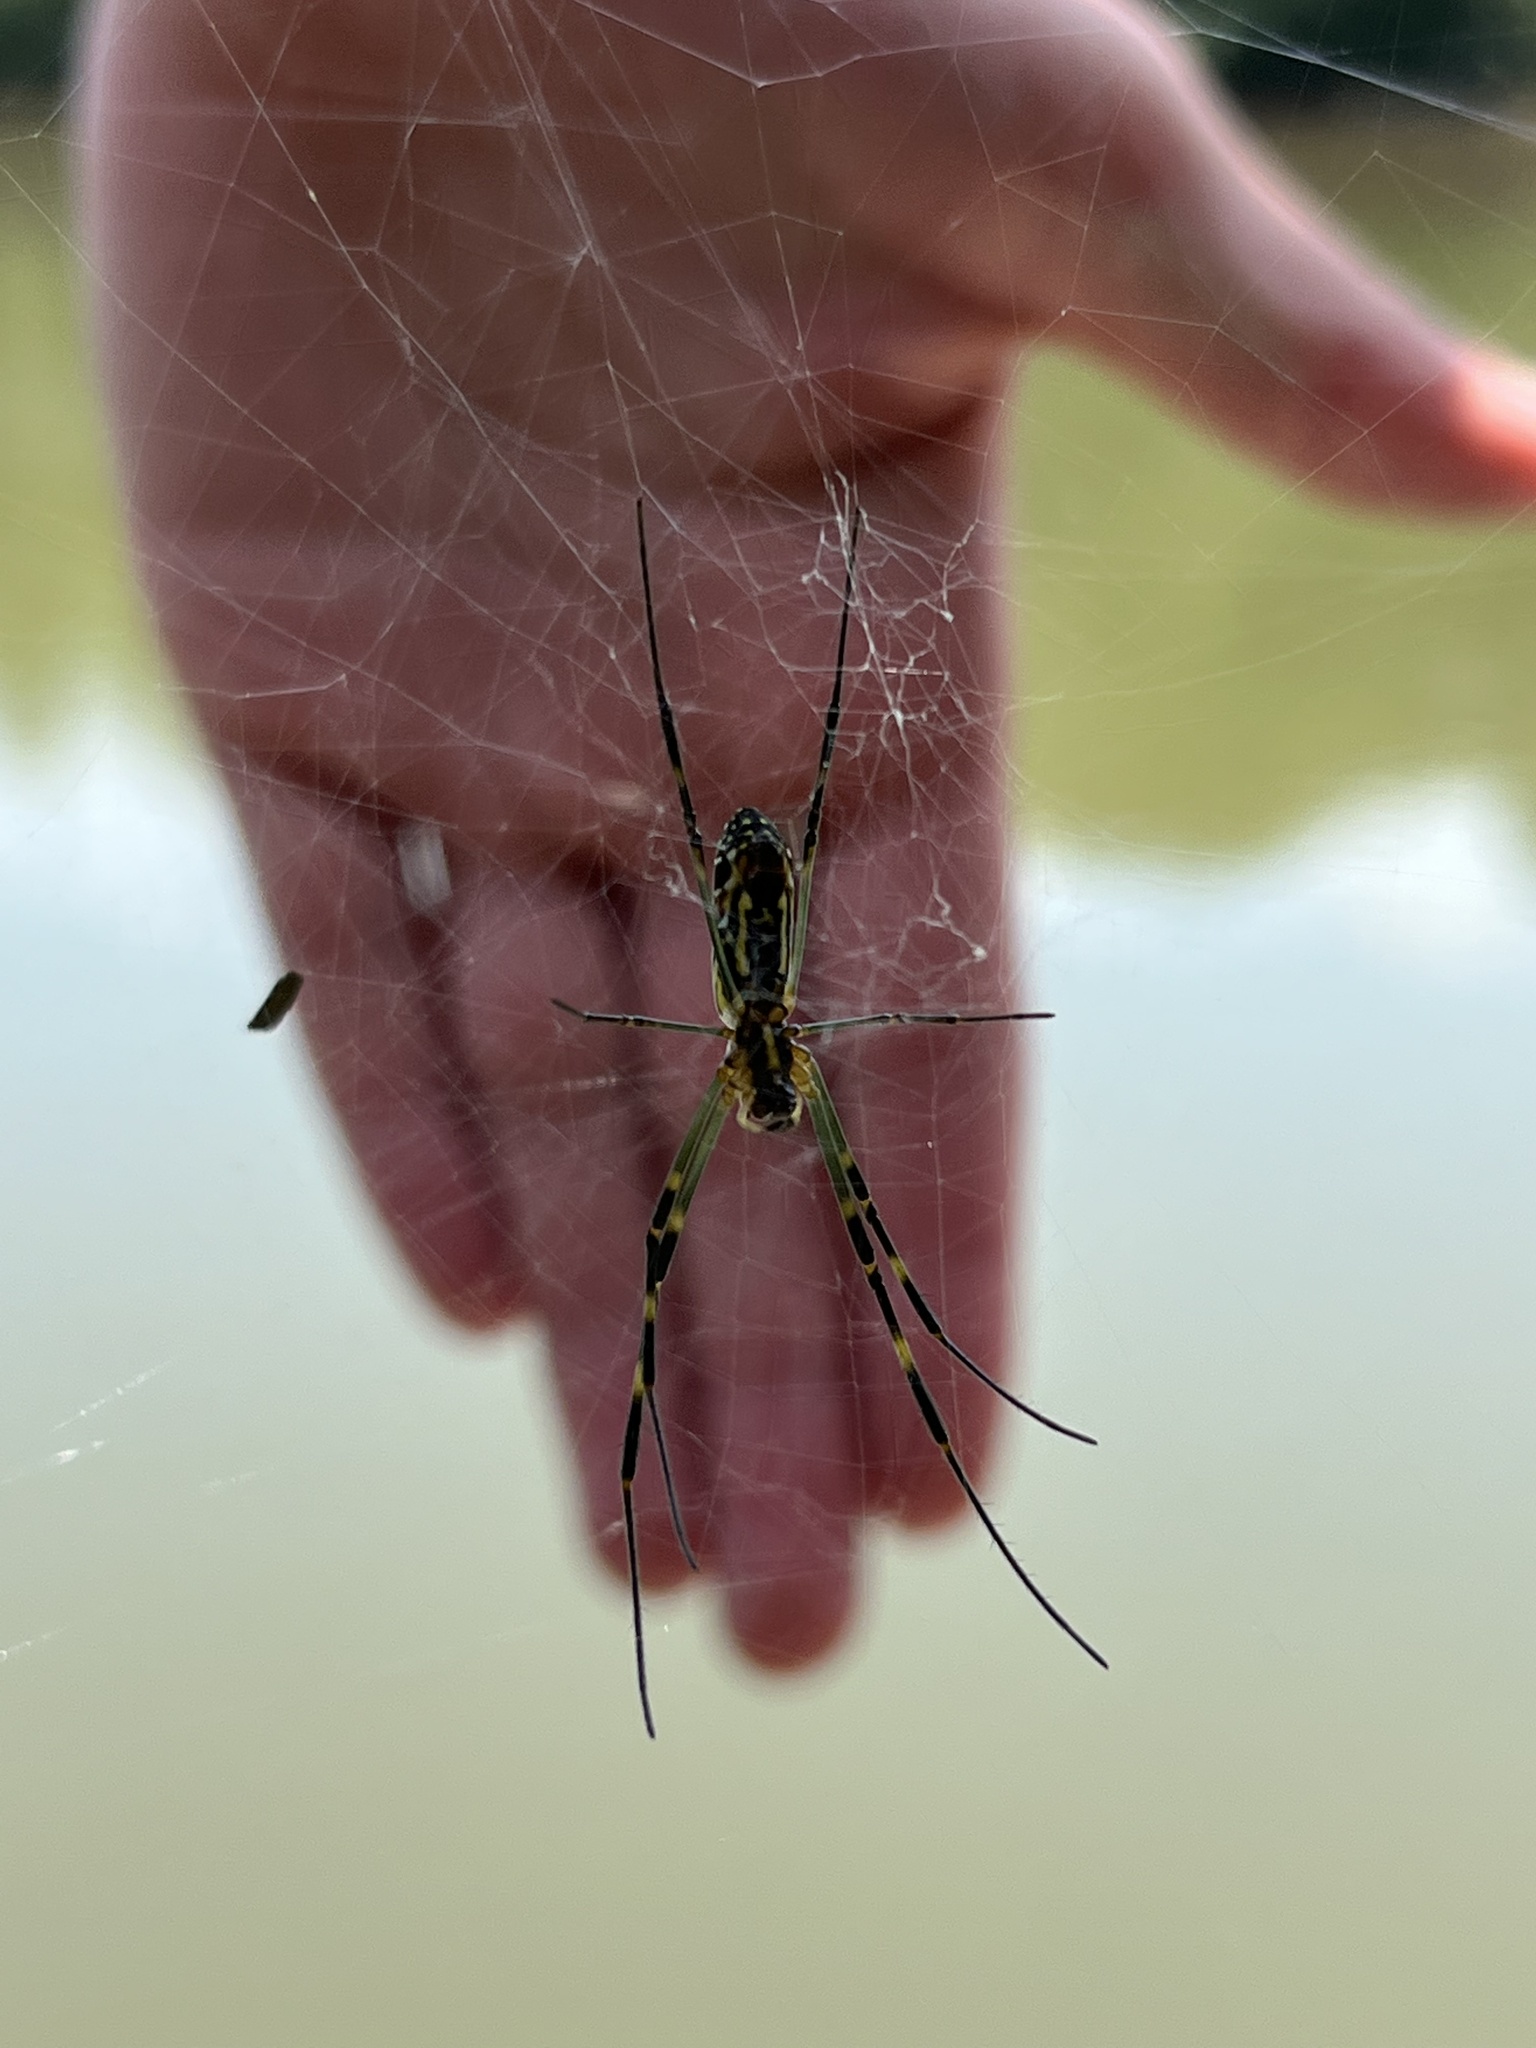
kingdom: Animalia
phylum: Arthropoda
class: Arachnida
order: Araneae
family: Araneidae
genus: Trichonephila
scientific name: Trichonephila clavata
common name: Jorō spider
